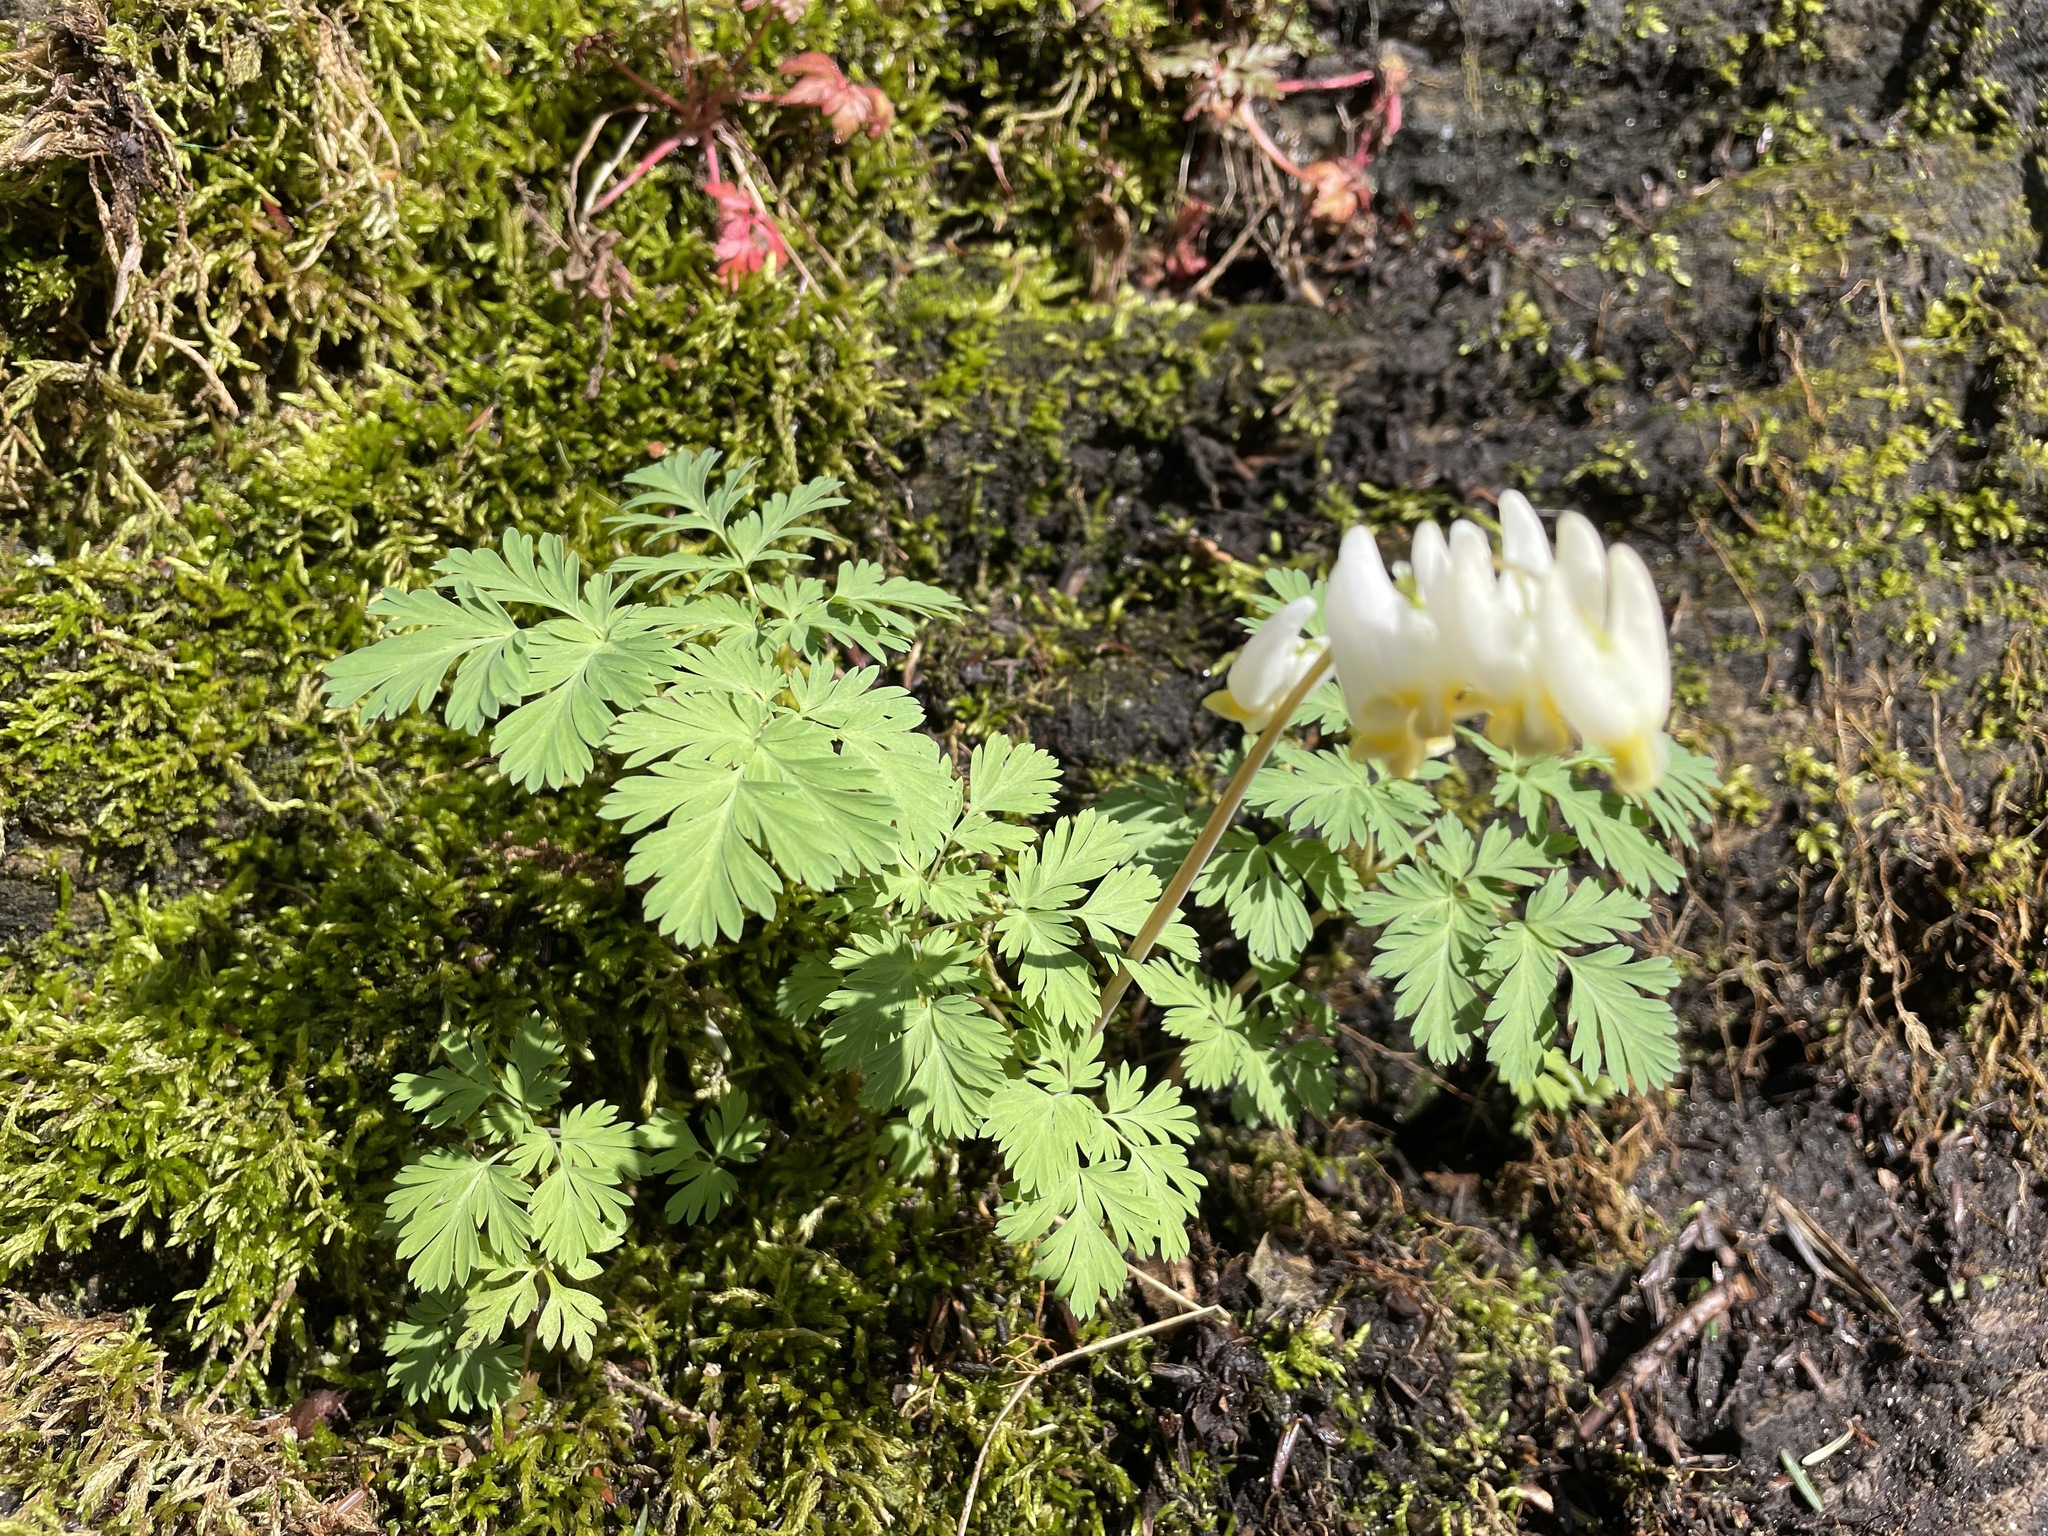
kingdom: Plantae
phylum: Tracheophyta
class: Magnoliopsida
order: Ranunculales
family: Papaveraceae
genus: Dicentra
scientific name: Dicentra cucullaria
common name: Dutchman's breeches
